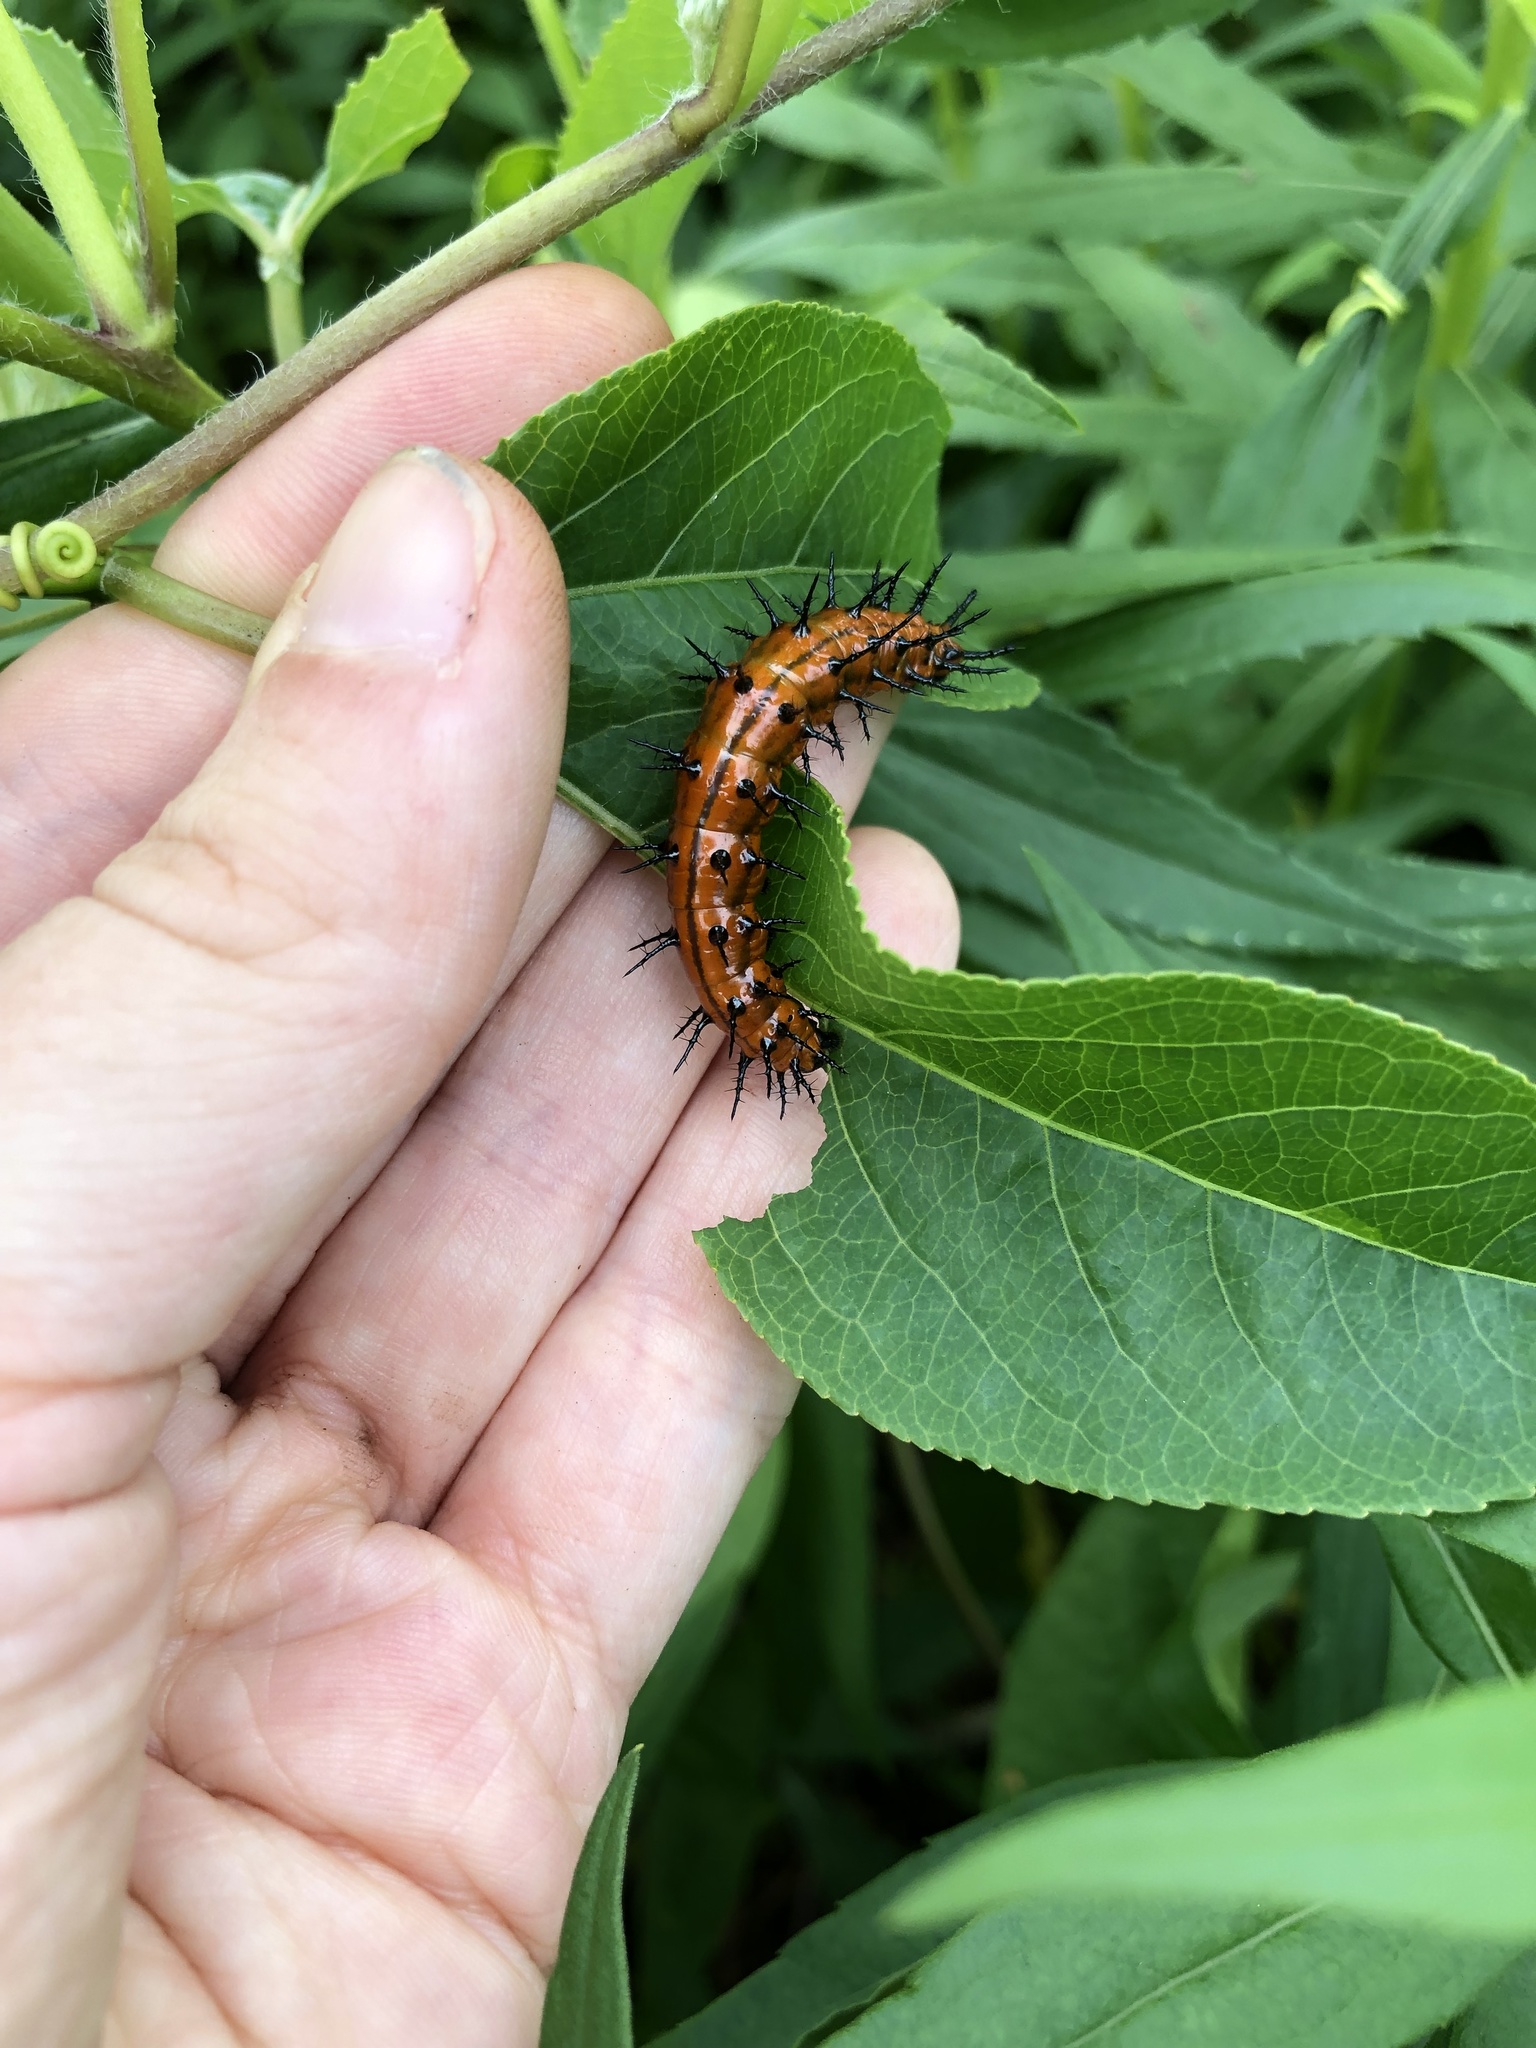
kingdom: Animalia
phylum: Arthropoda
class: Insecta
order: Lepidoptera
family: Nymphalidae
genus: Dione
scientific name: Dione vanillae
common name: Gulf fritillary
